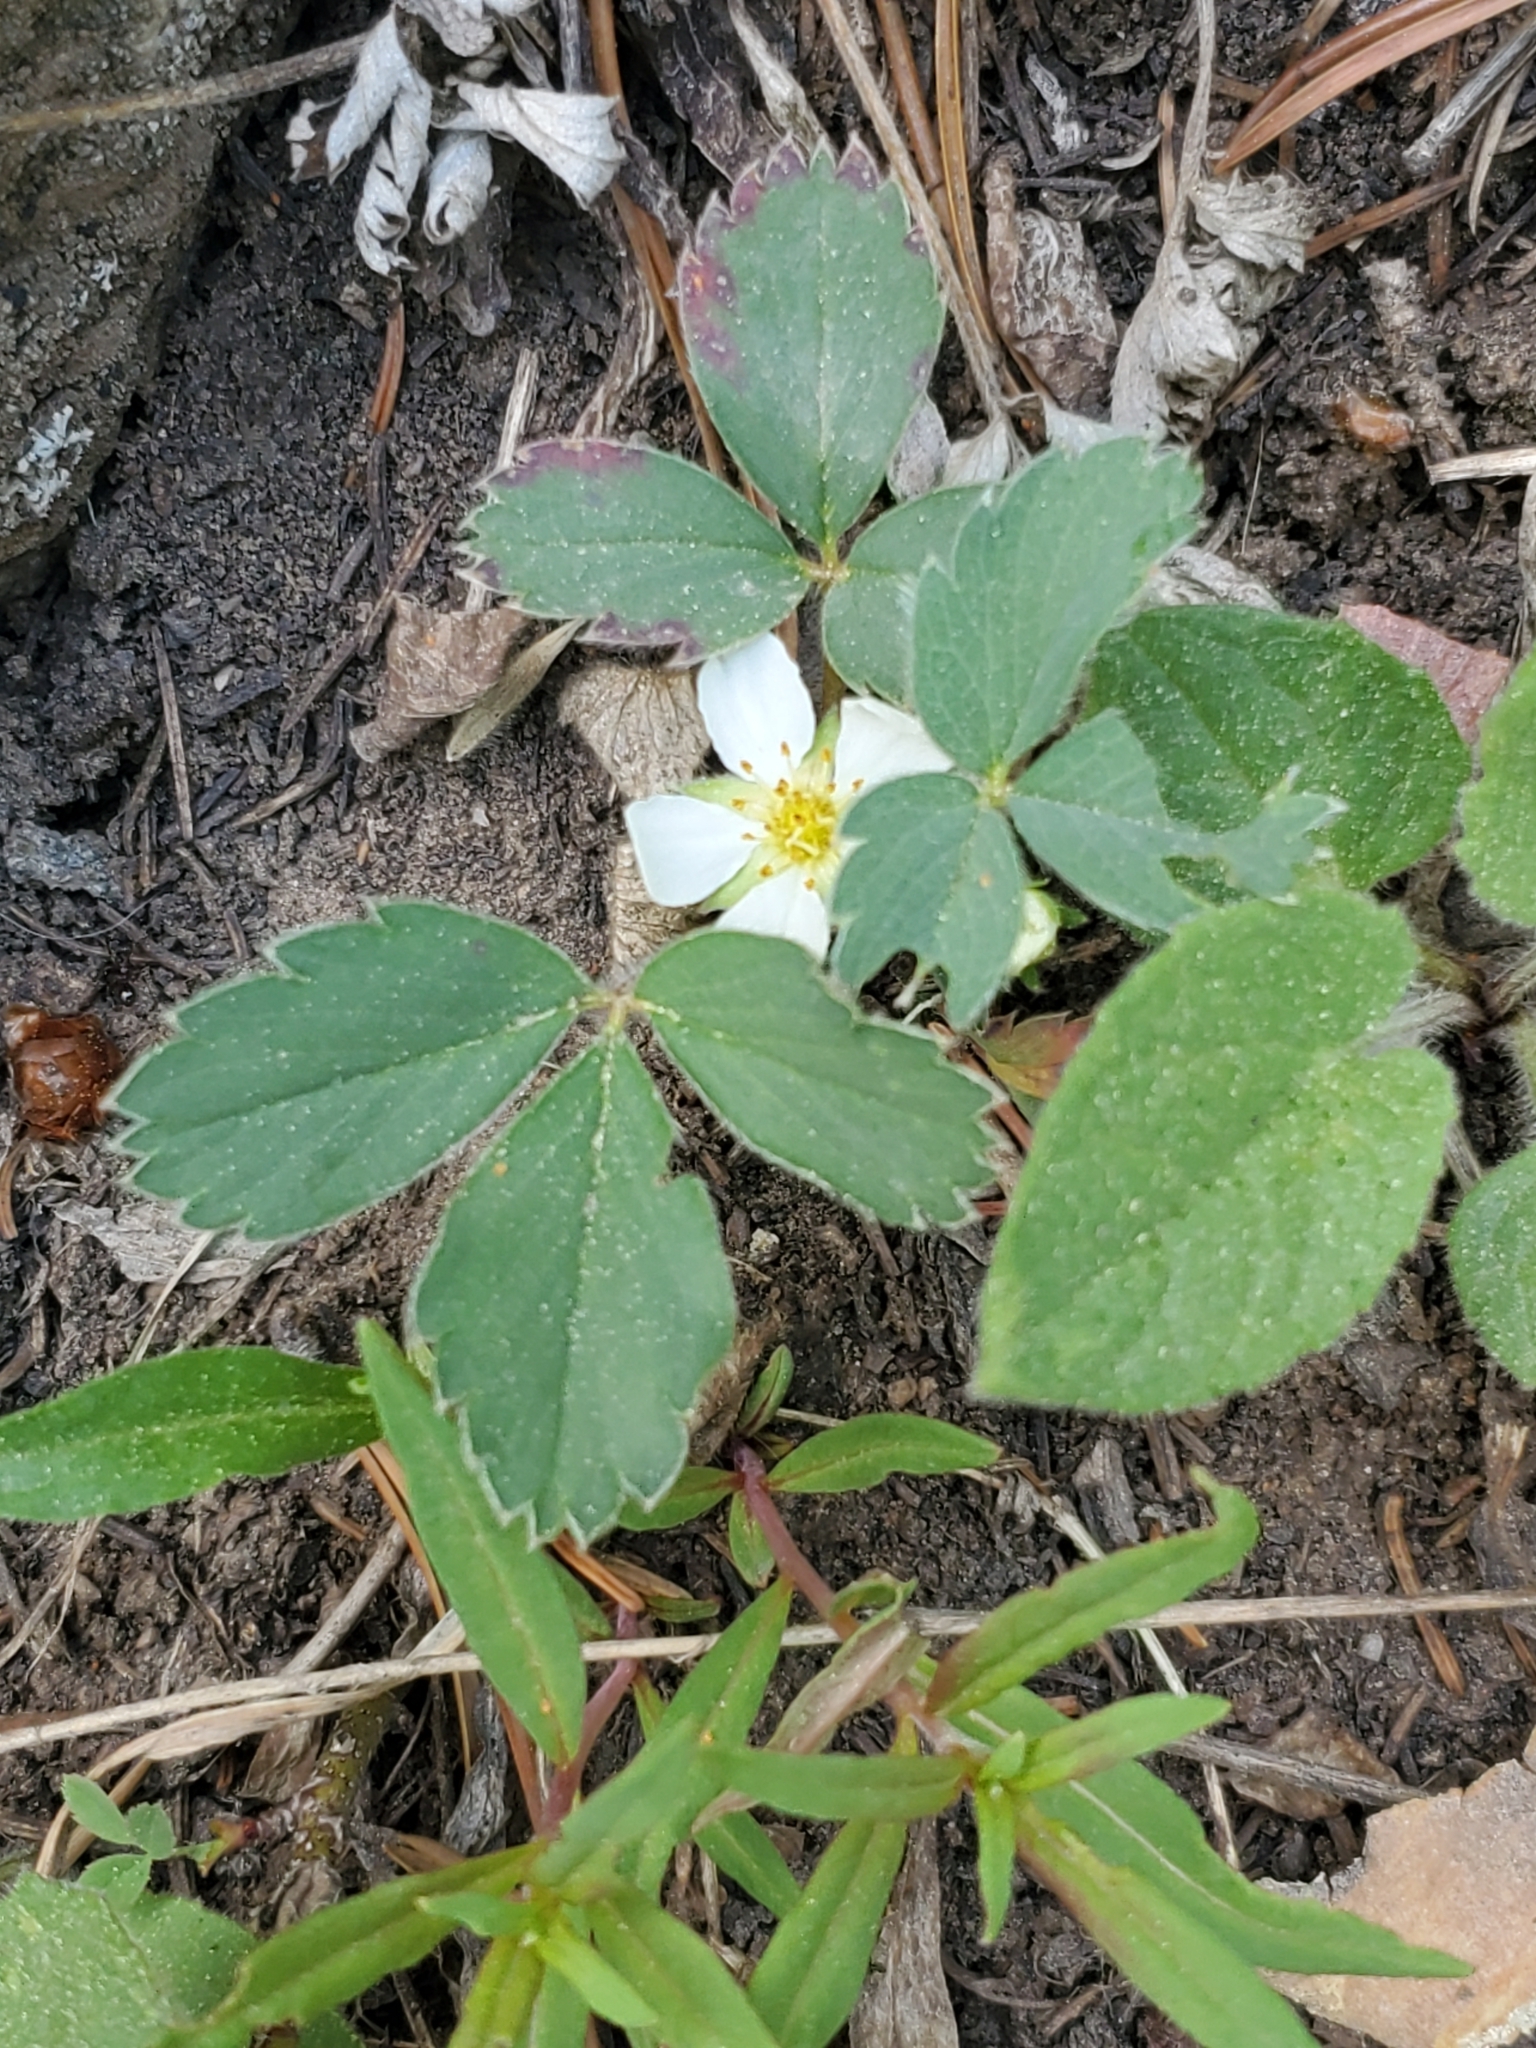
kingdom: Plantae
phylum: Tracheophyta
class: Magnoliopsida
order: Rosales
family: Rosaceae
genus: Fragaria
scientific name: Fragaria virginiana
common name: Thickleaved wild strawberry
